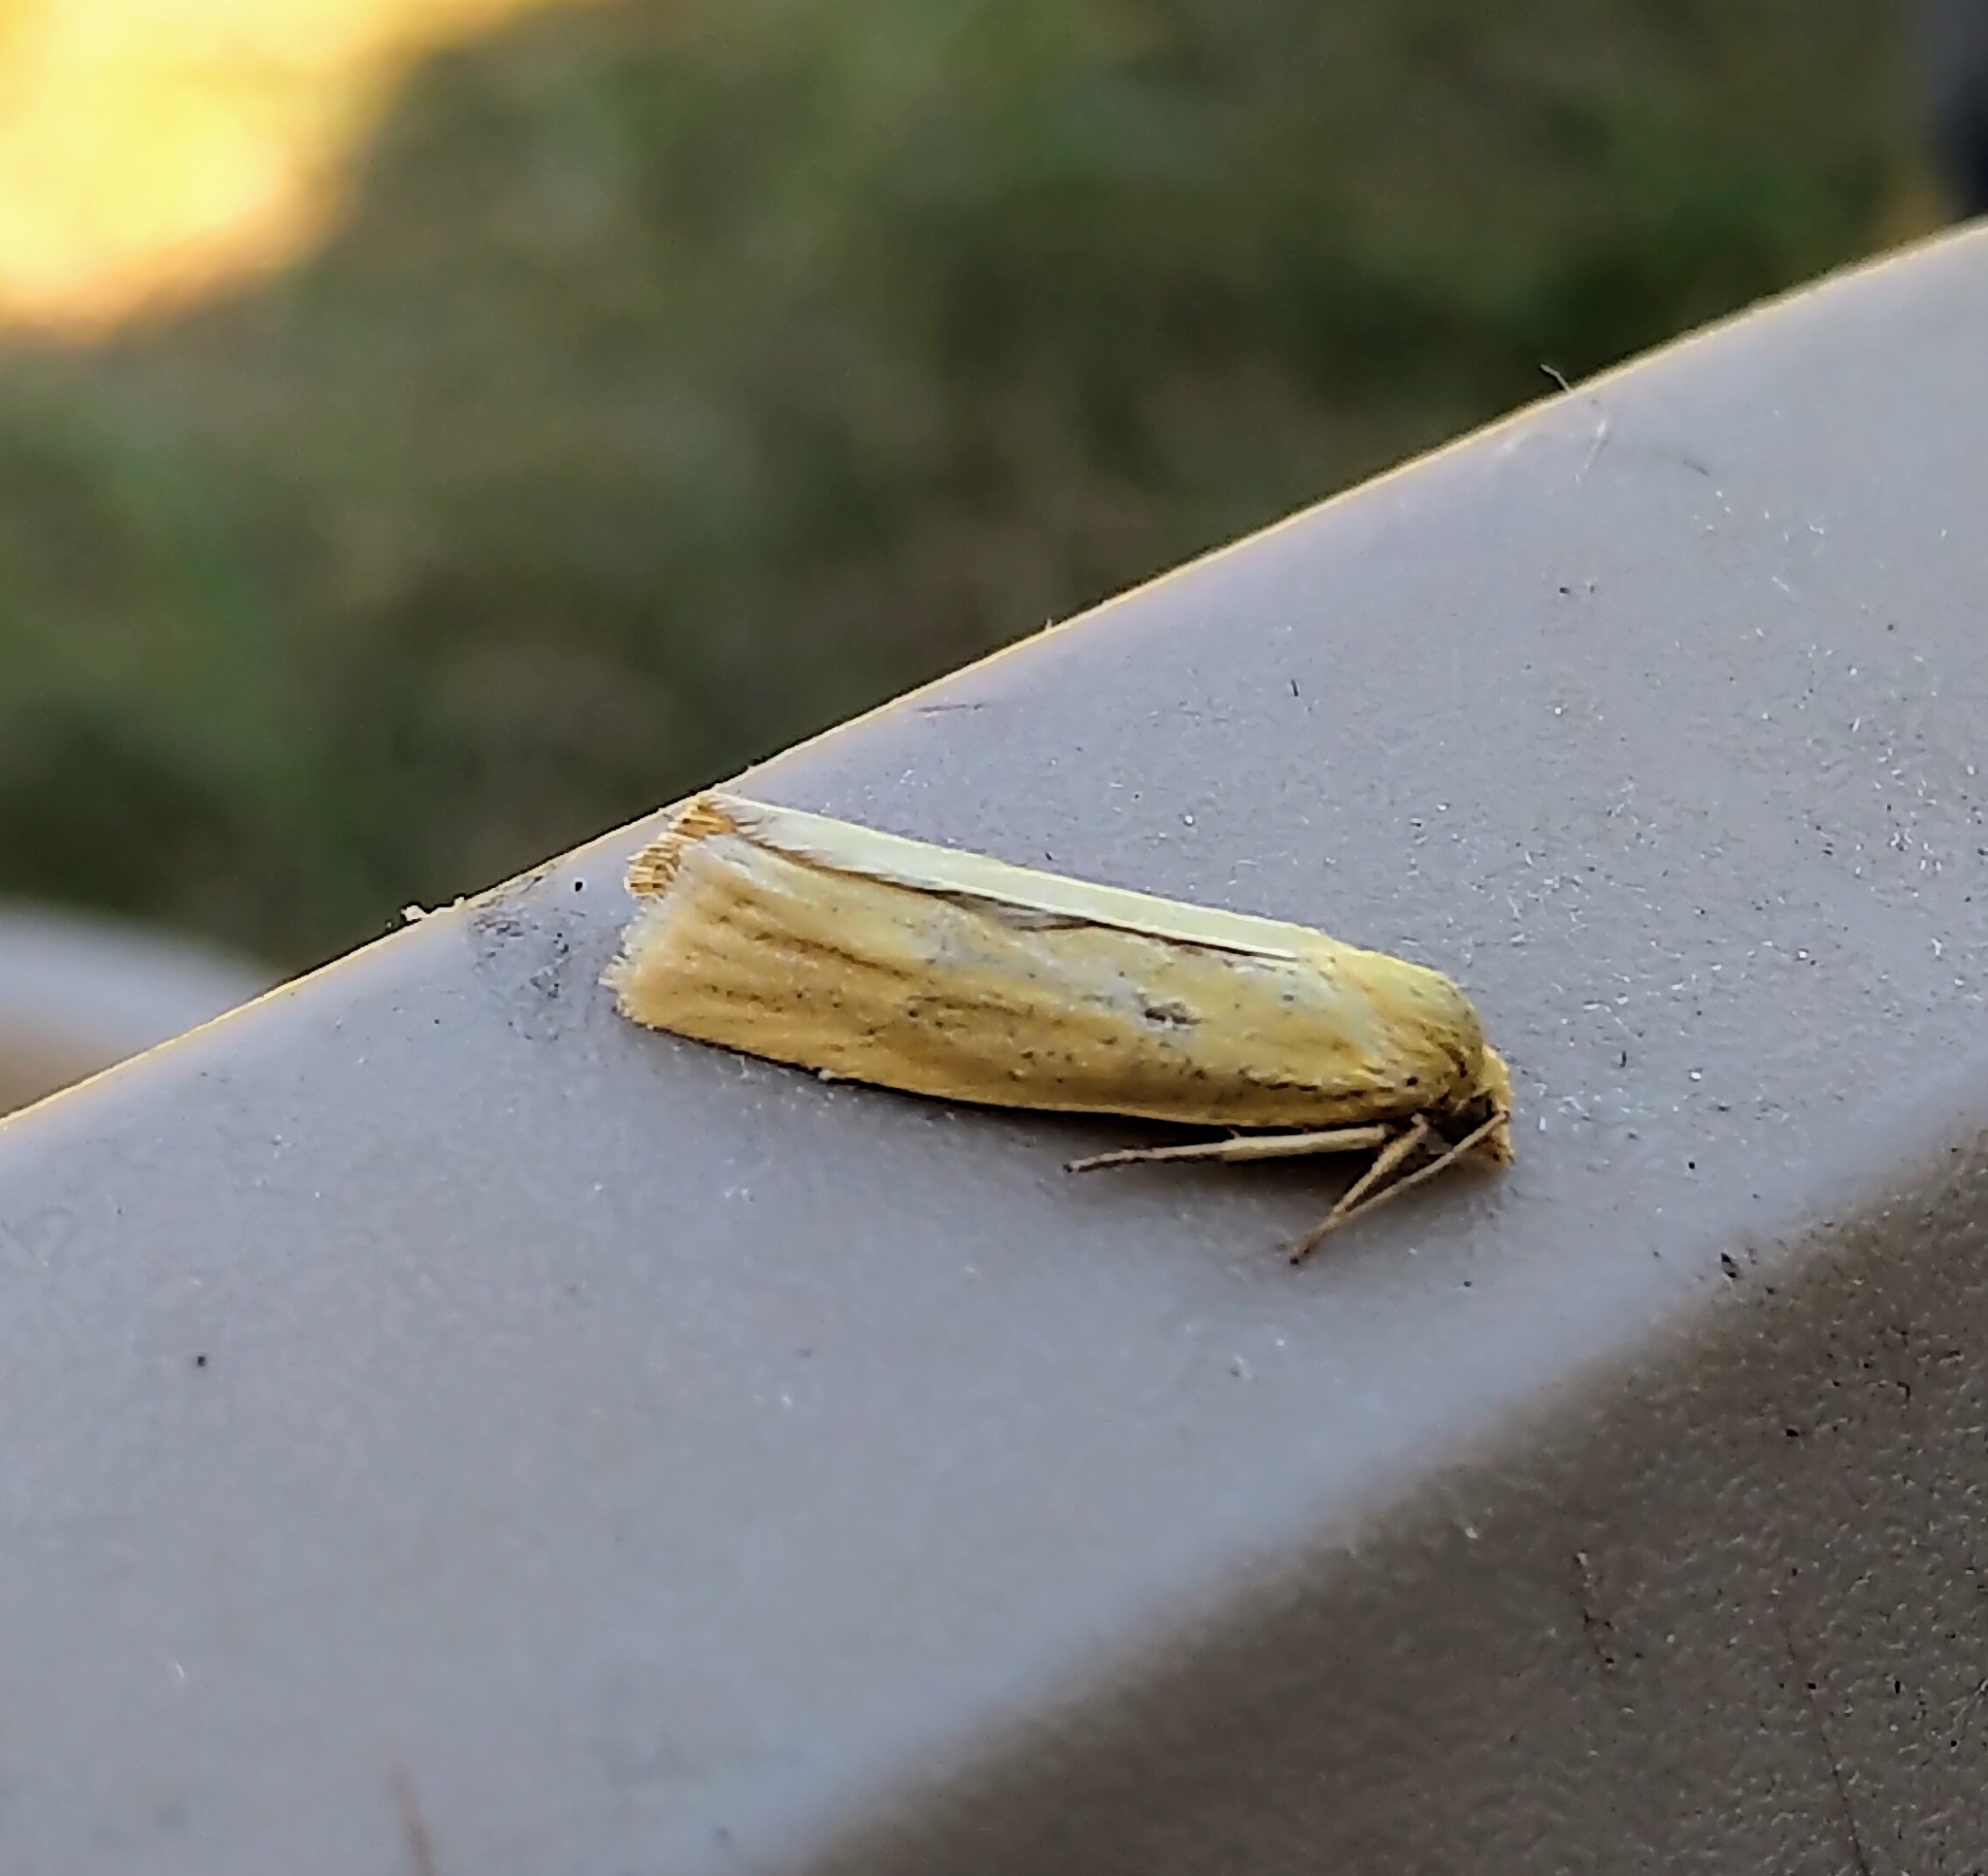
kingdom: Animalia
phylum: Arthropoda
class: Insecta
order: Lepidoptera
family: Tortricidae
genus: Pelochrista
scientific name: Pelochrista fandana
